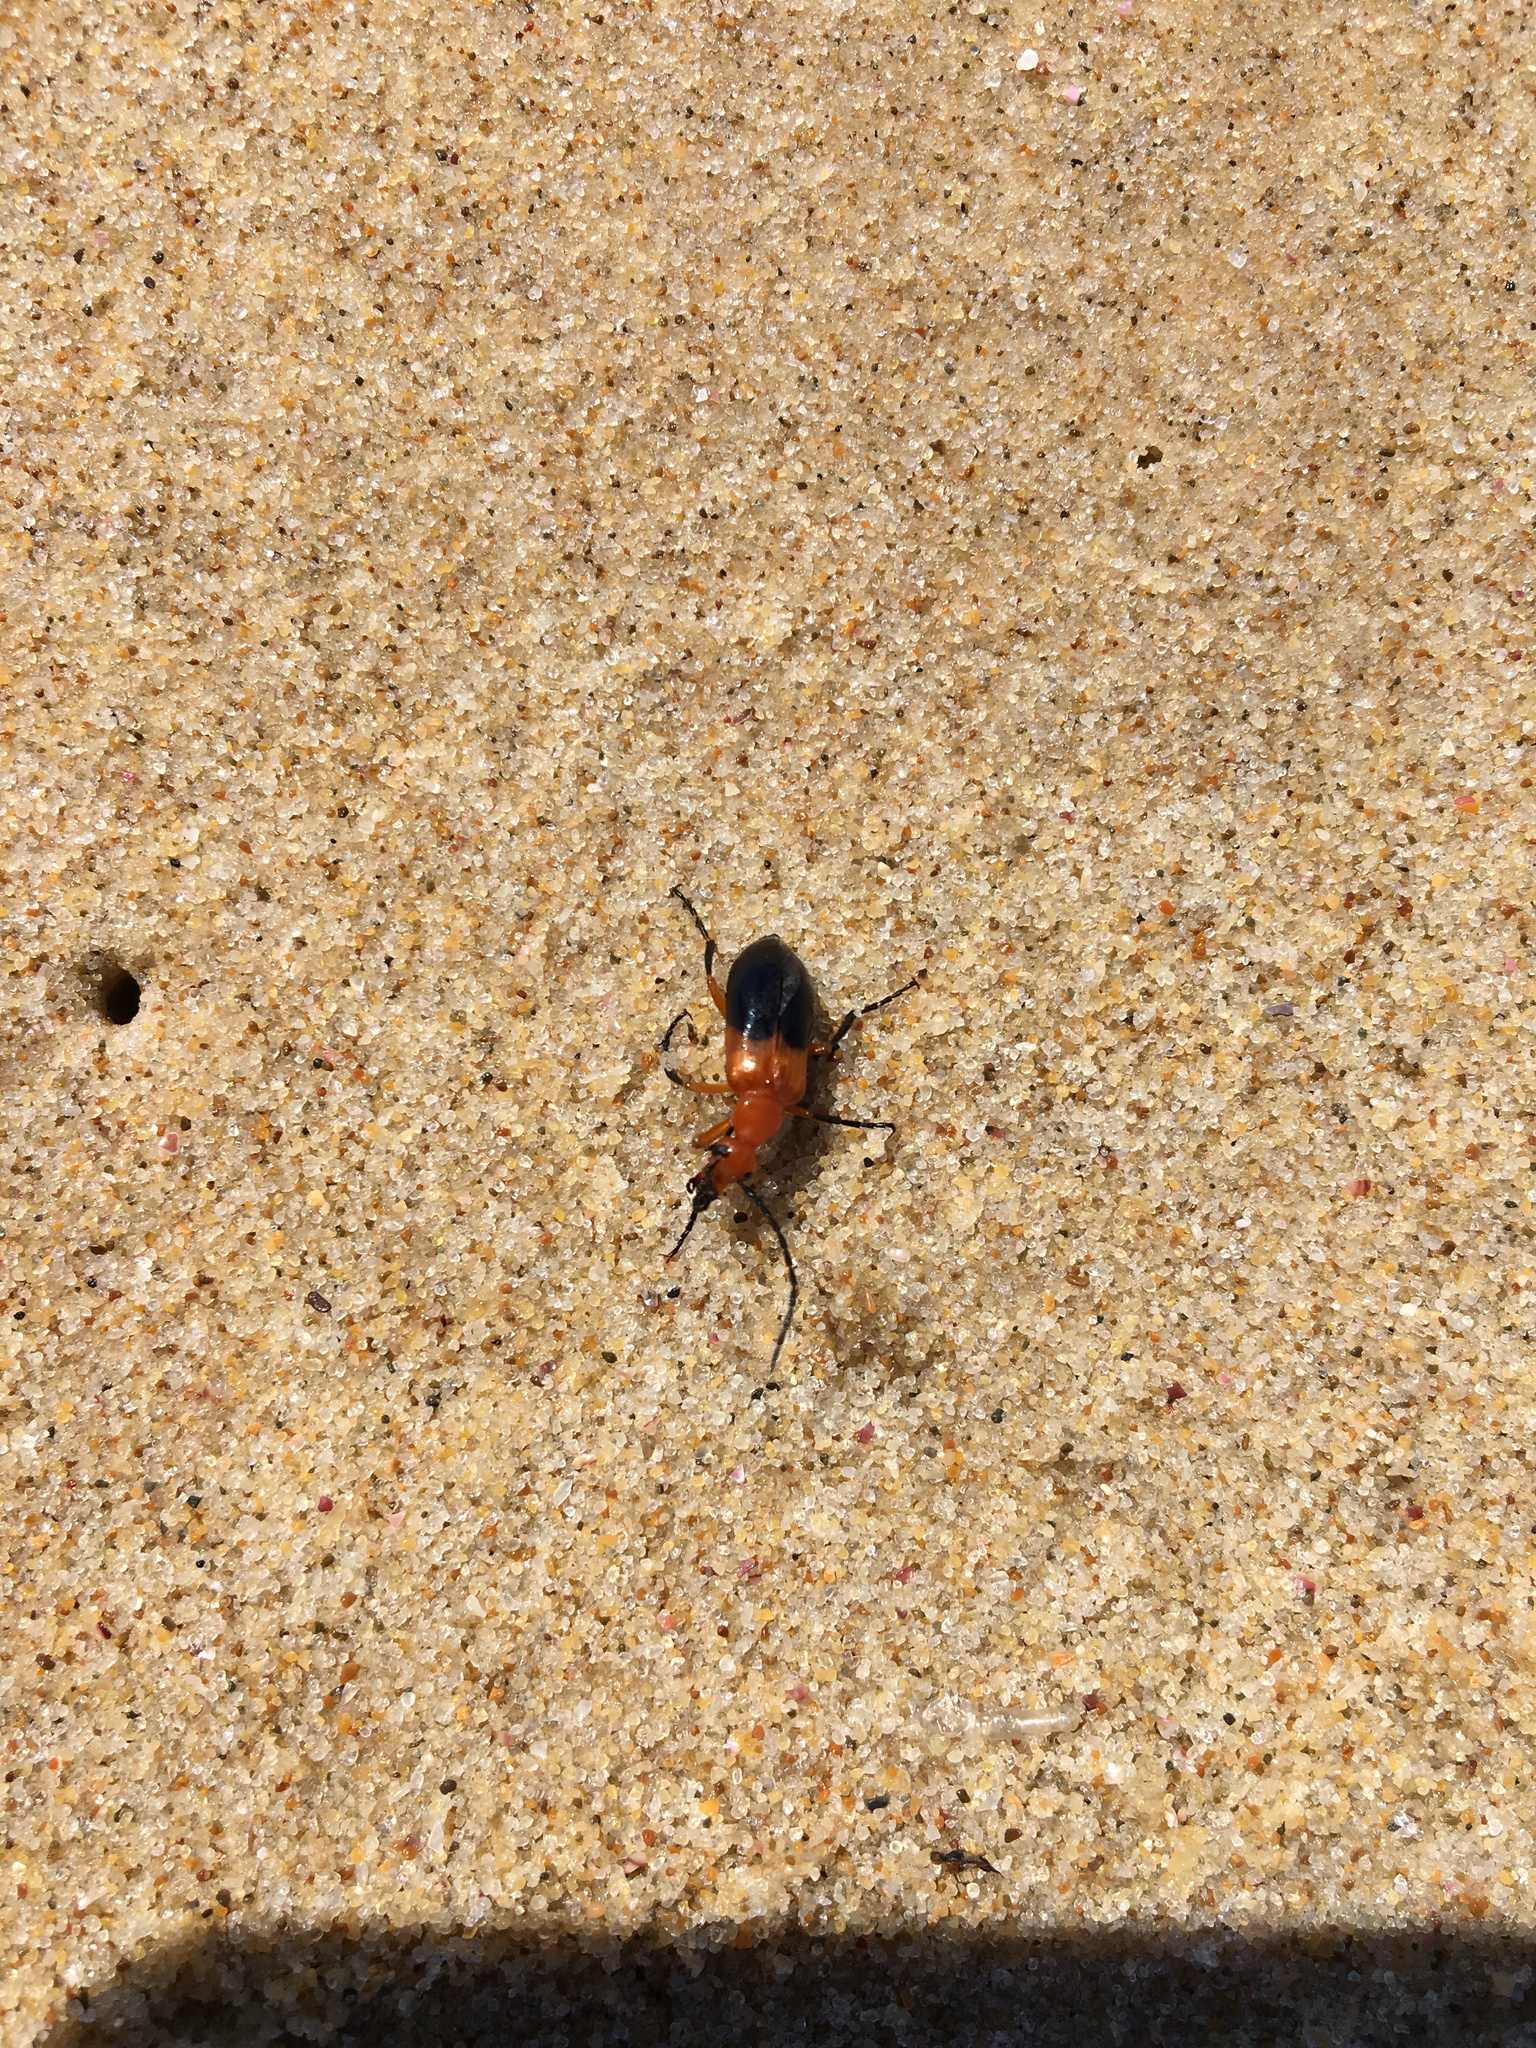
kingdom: Animalia
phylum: Arthropoda
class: Insecta
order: Coleoptera
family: Meloidae
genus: Palaestra
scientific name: Palaestra
